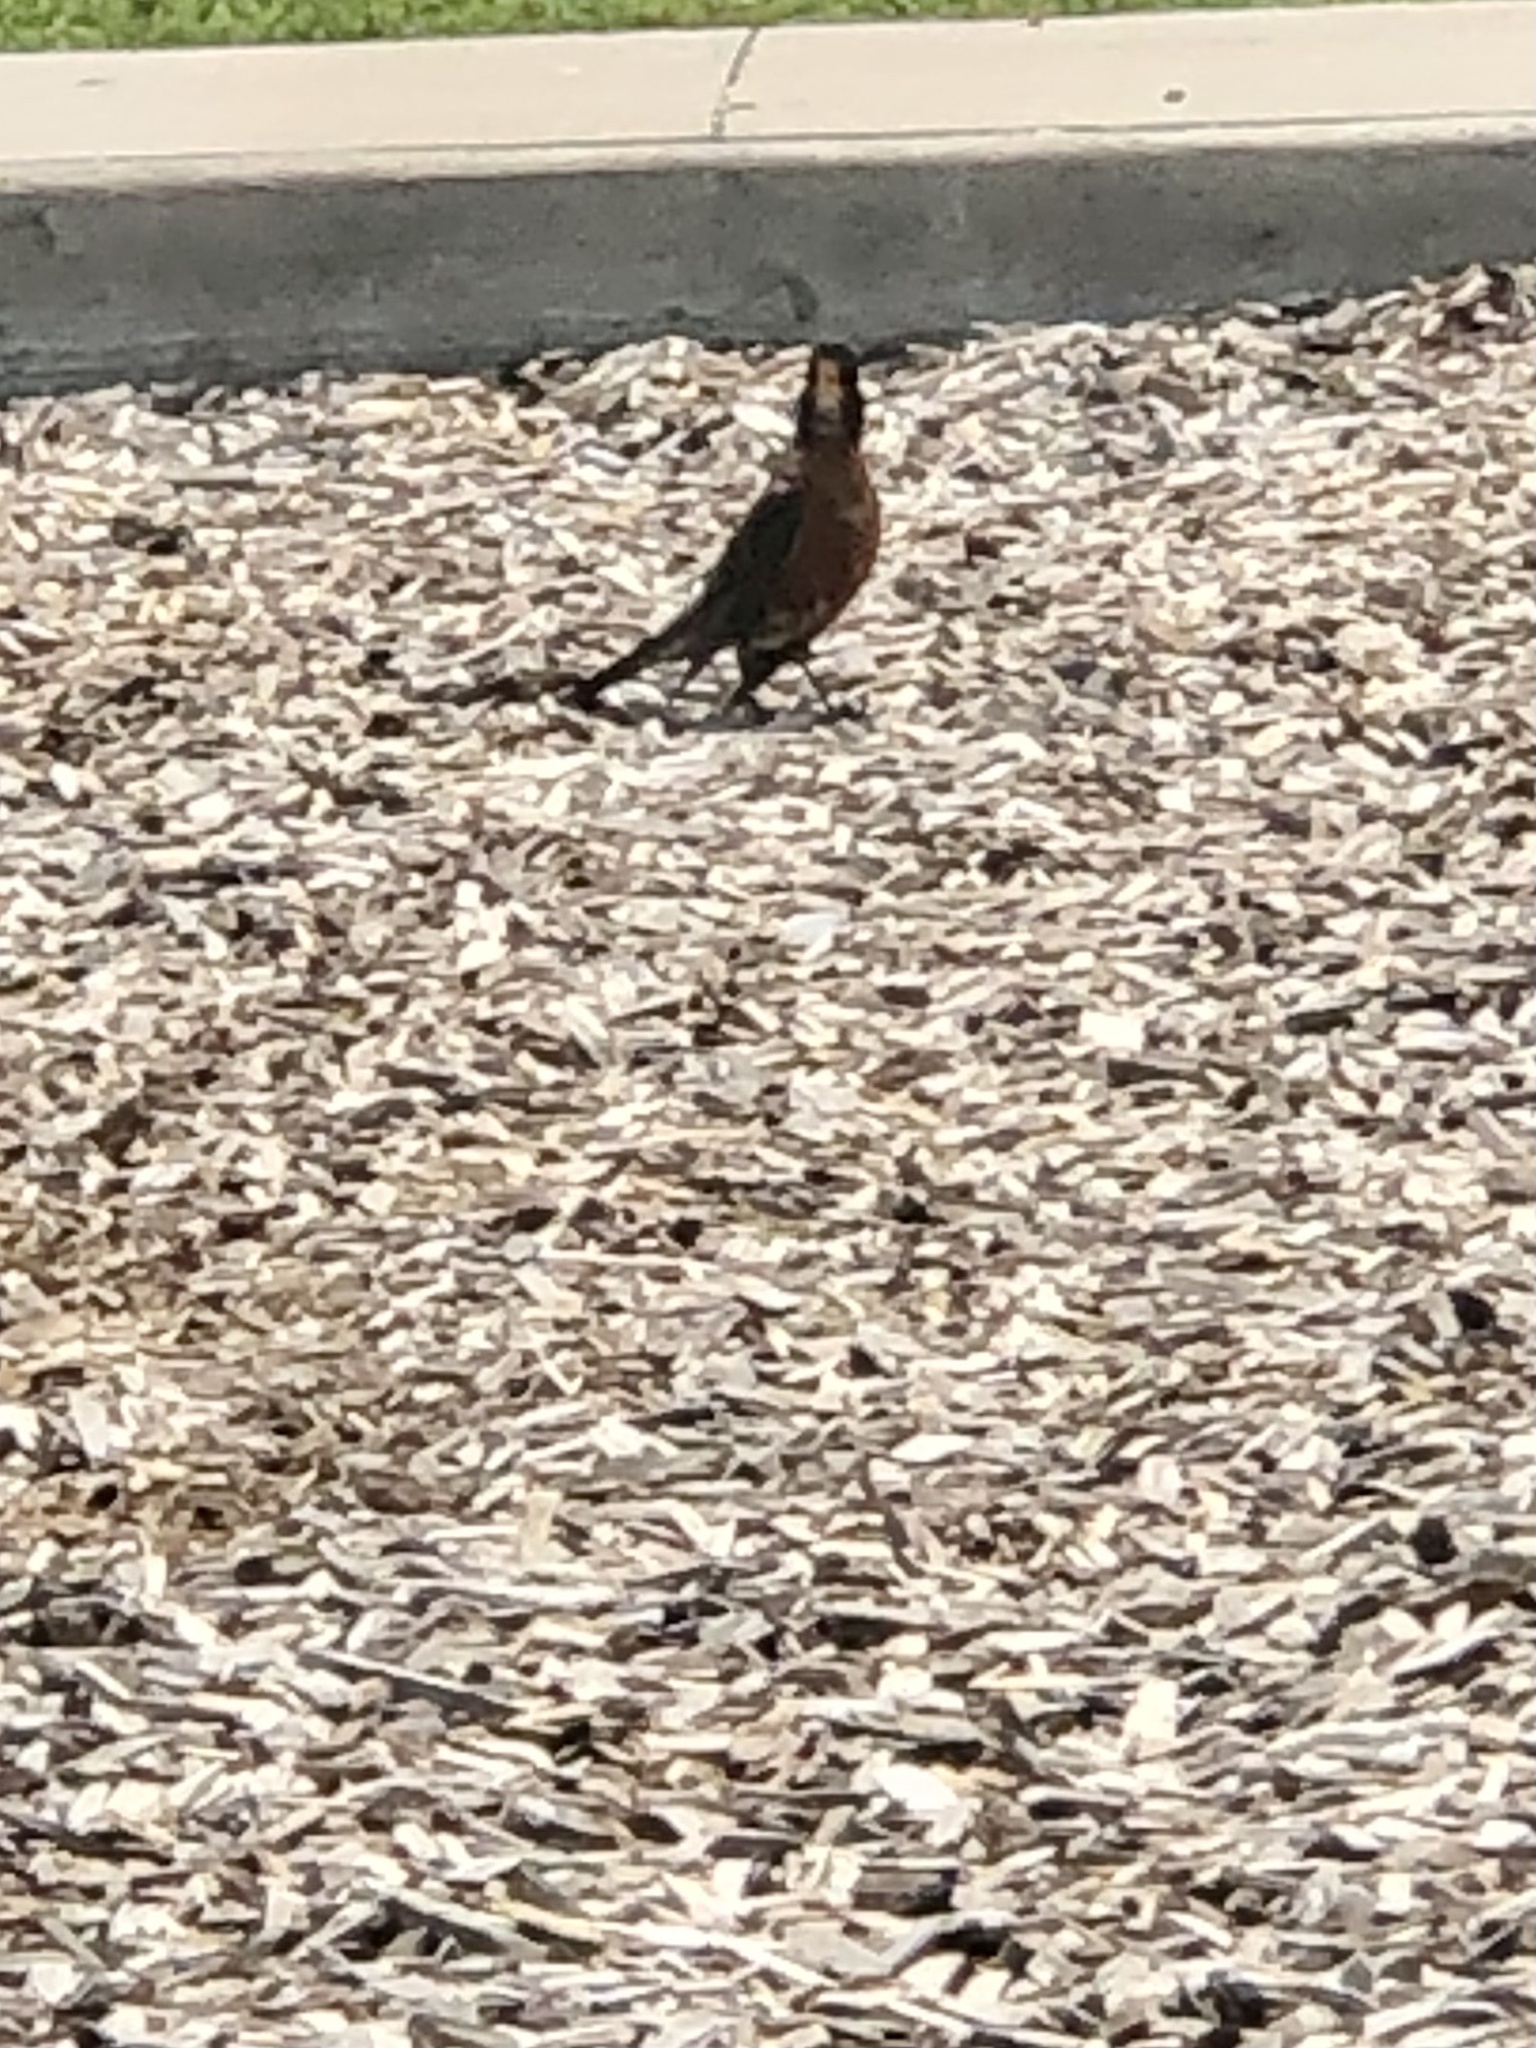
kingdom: Animalia
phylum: Chordata
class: Aves
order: Passeriformes
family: Turdidae
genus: Turdus
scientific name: Turdus migratorius
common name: American robin
